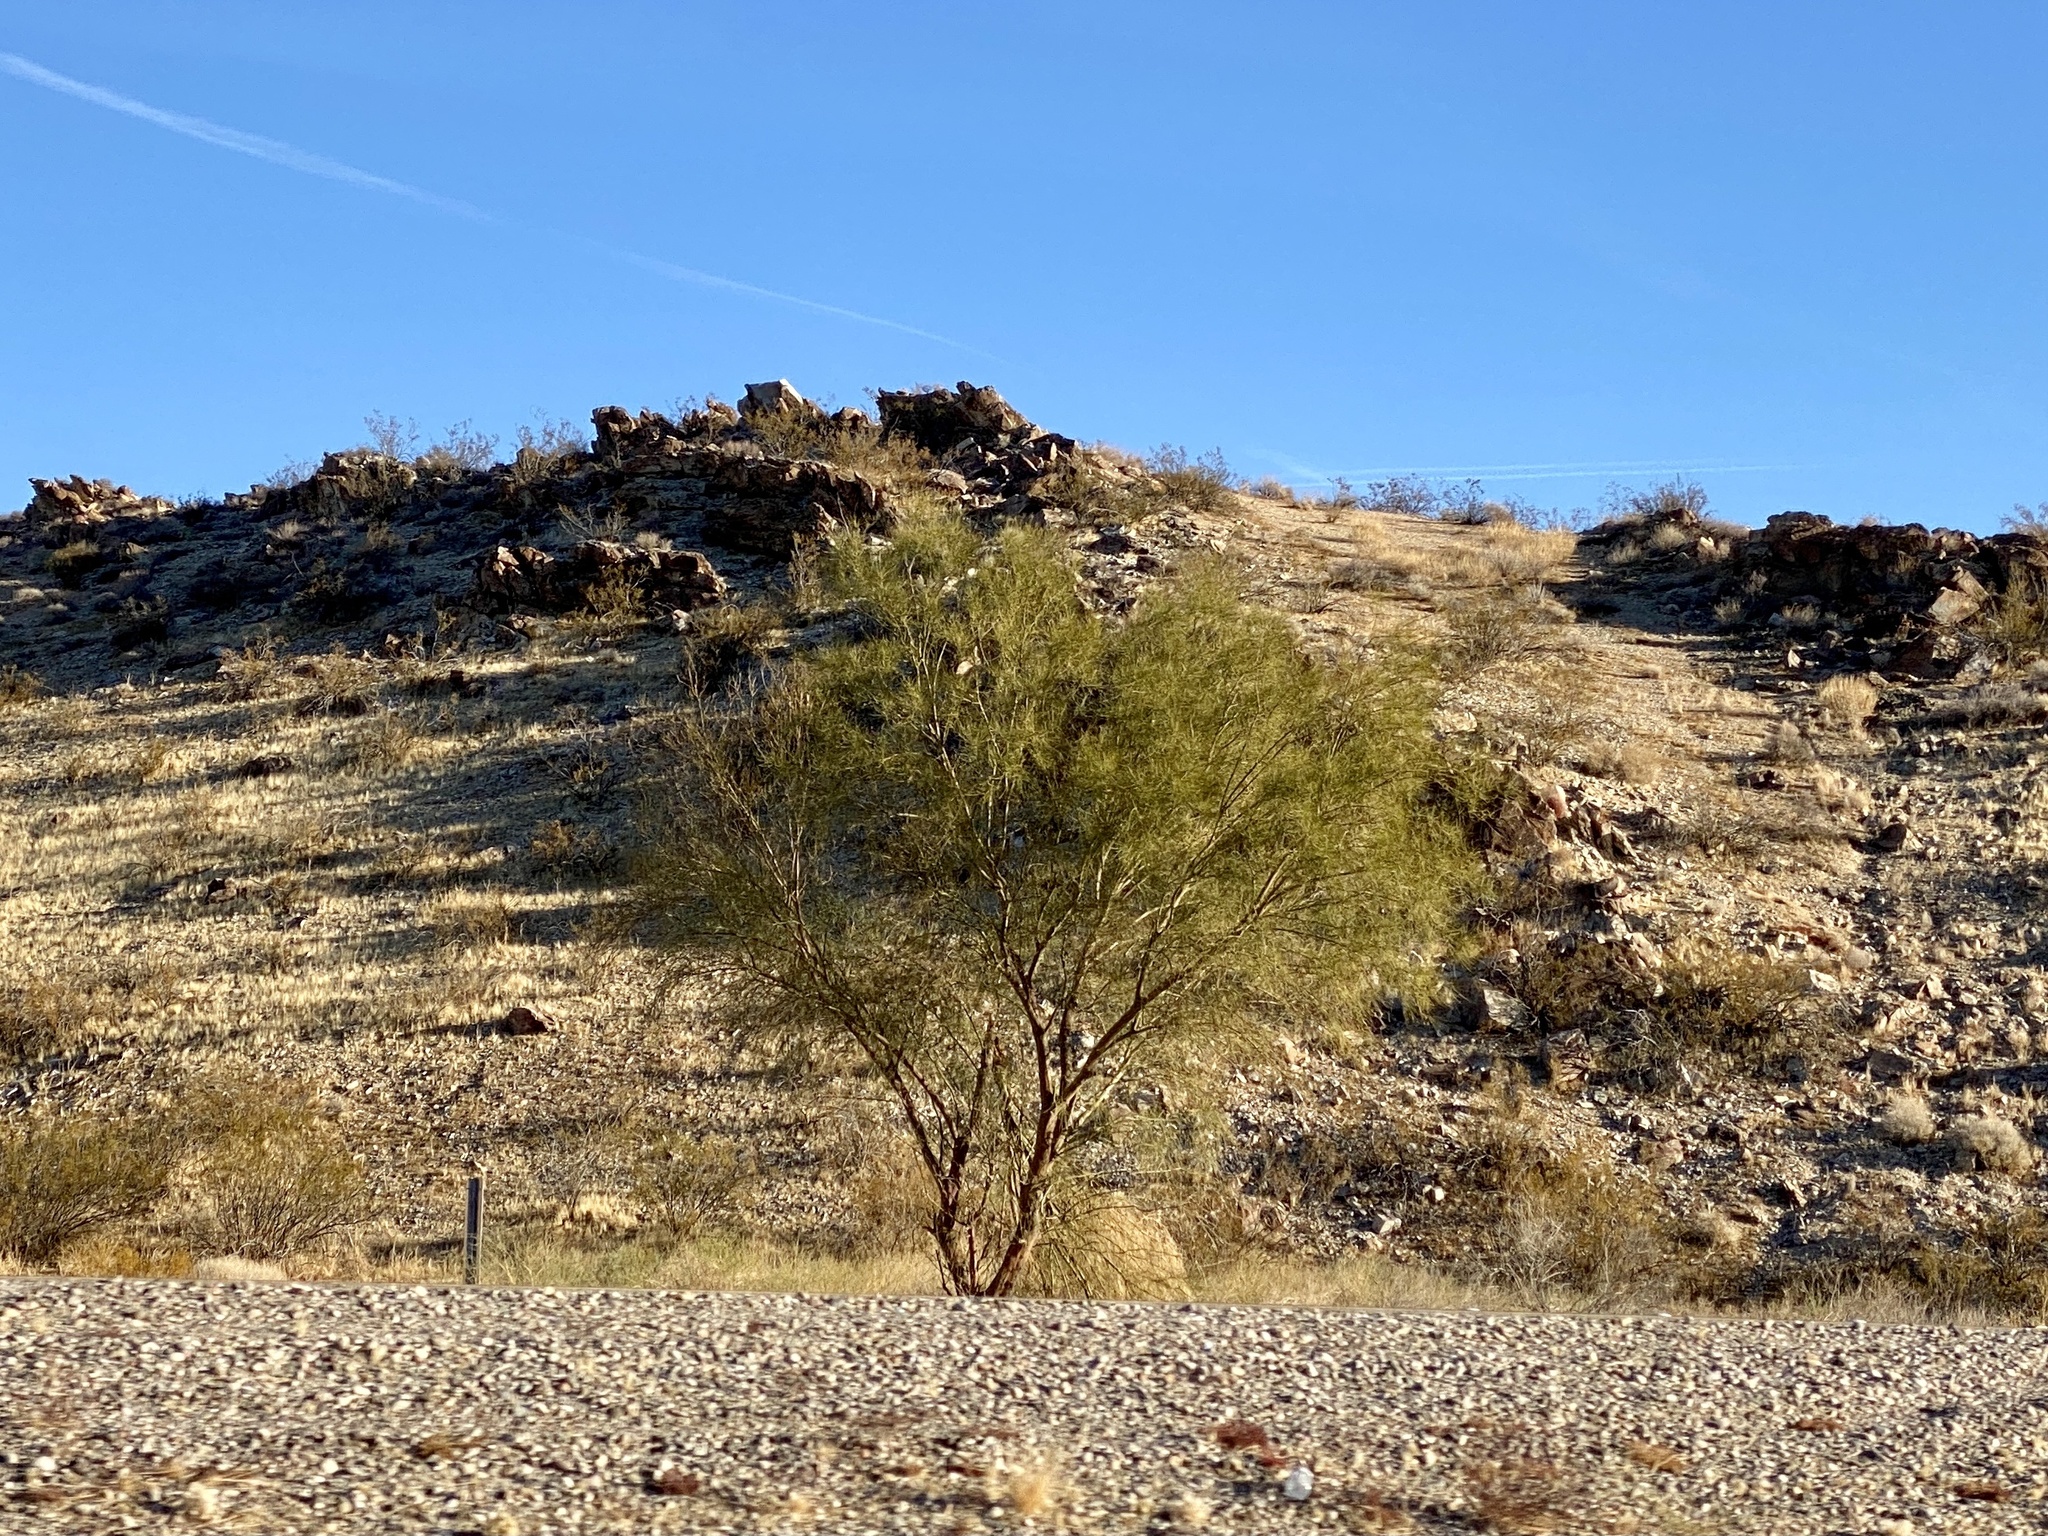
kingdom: Plantae
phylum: Tracheophyta
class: Magnoliopsida
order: Fabales
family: Fabaceae
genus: Parkinsonia
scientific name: Parkinsonia aculeata
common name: Jerusalem thorn
